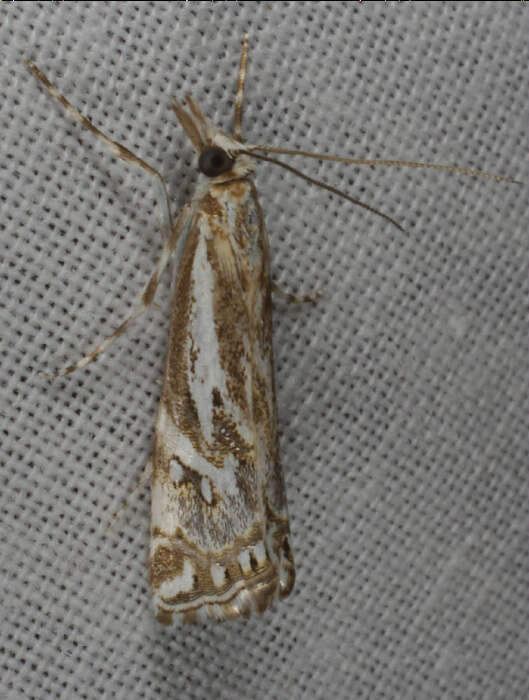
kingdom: Animalia
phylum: Arthropoda
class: Insecta
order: Lepidoptera
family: Crambidae
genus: Hednota
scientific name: Hednota eremenopa
